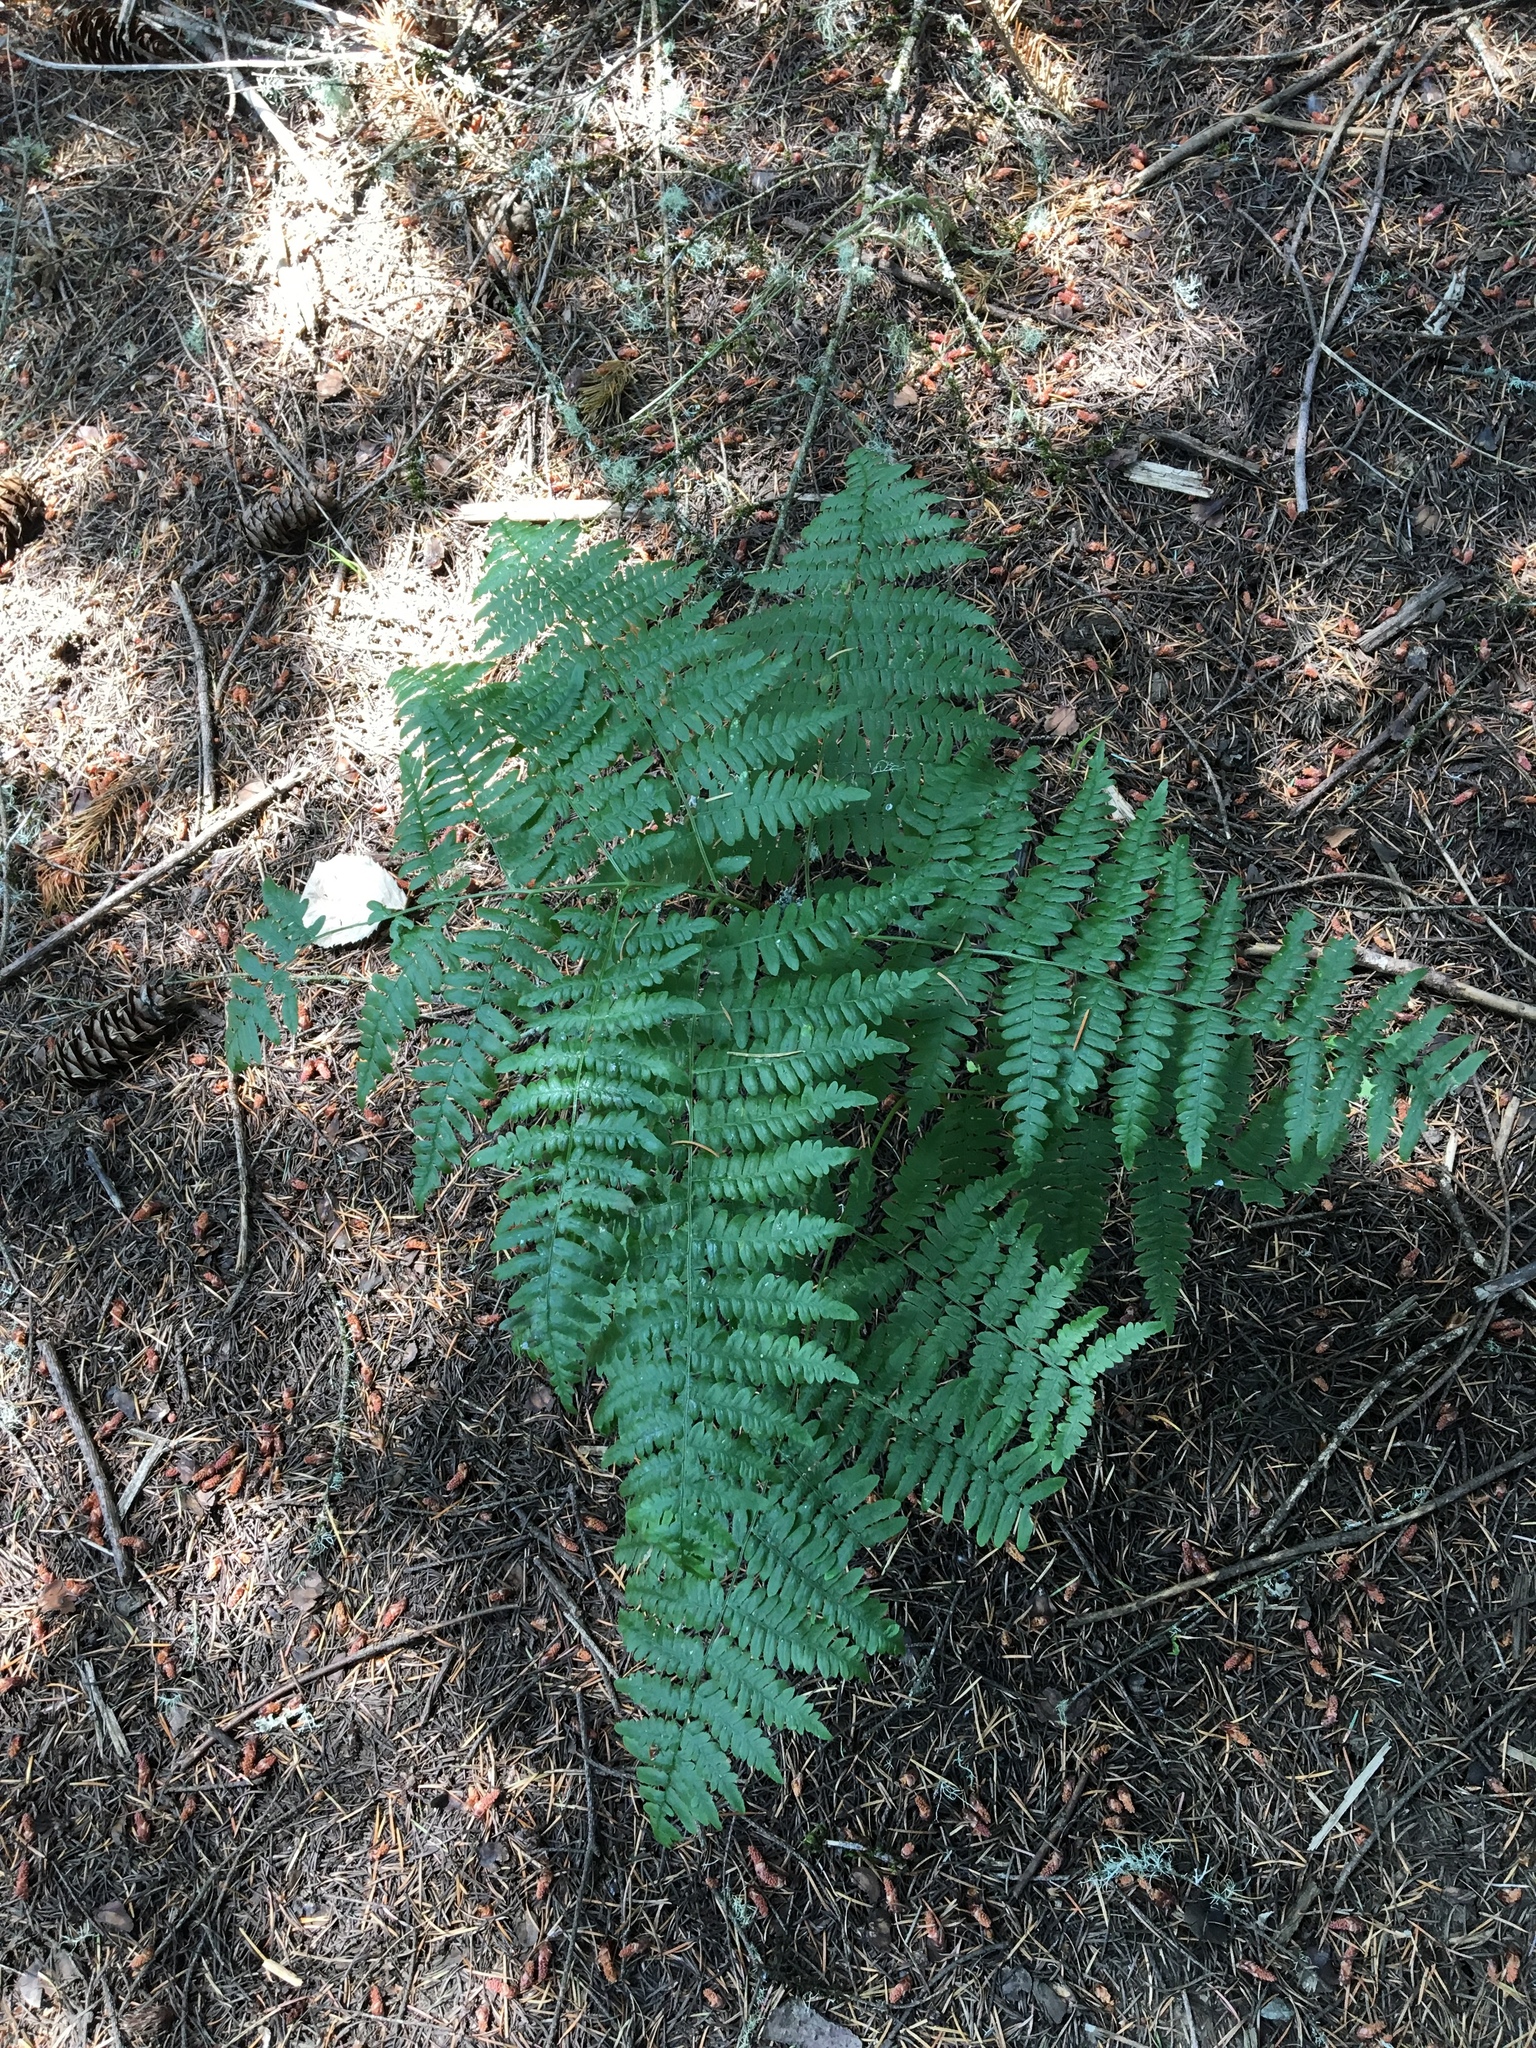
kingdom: Plantae
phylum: Tracheophyta
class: Polypodiopsida
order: Polypodiales
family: Dennstaedtiaceae
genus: Pteridium
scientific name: Pteridium aquilinum
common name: Bracken
